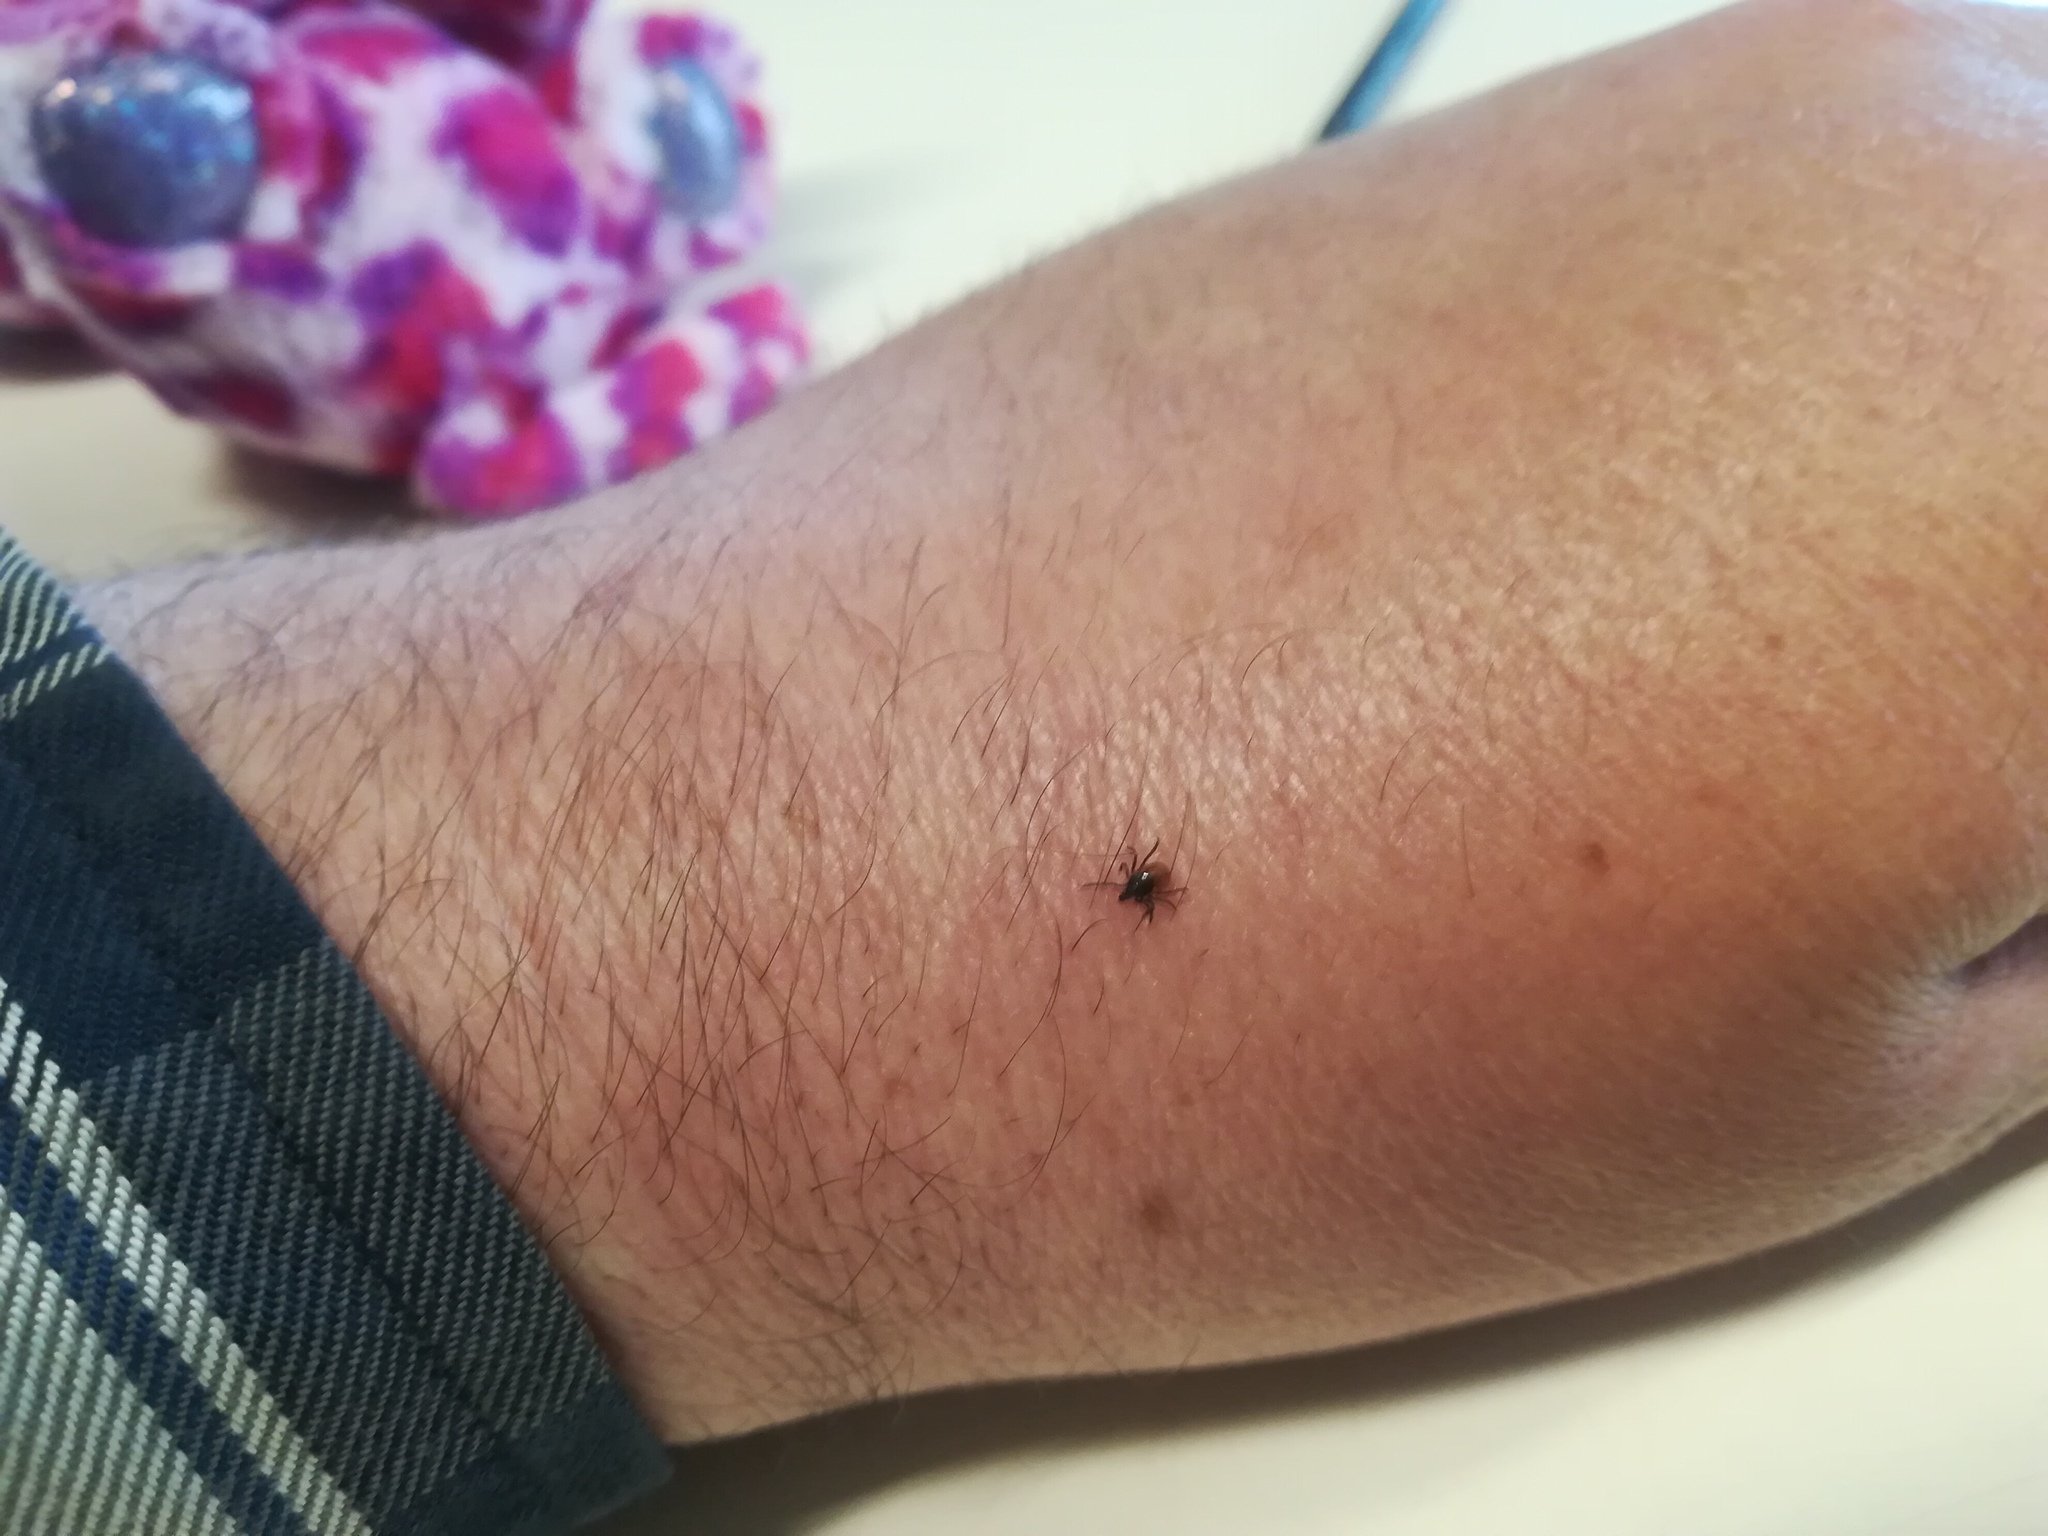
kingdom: Animalia
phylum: Arthropoda
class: Arachnida
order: Ixodida
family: Ixodidae
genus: Ixodes
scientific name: Ixodes ricinus
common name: Castor bean tick
